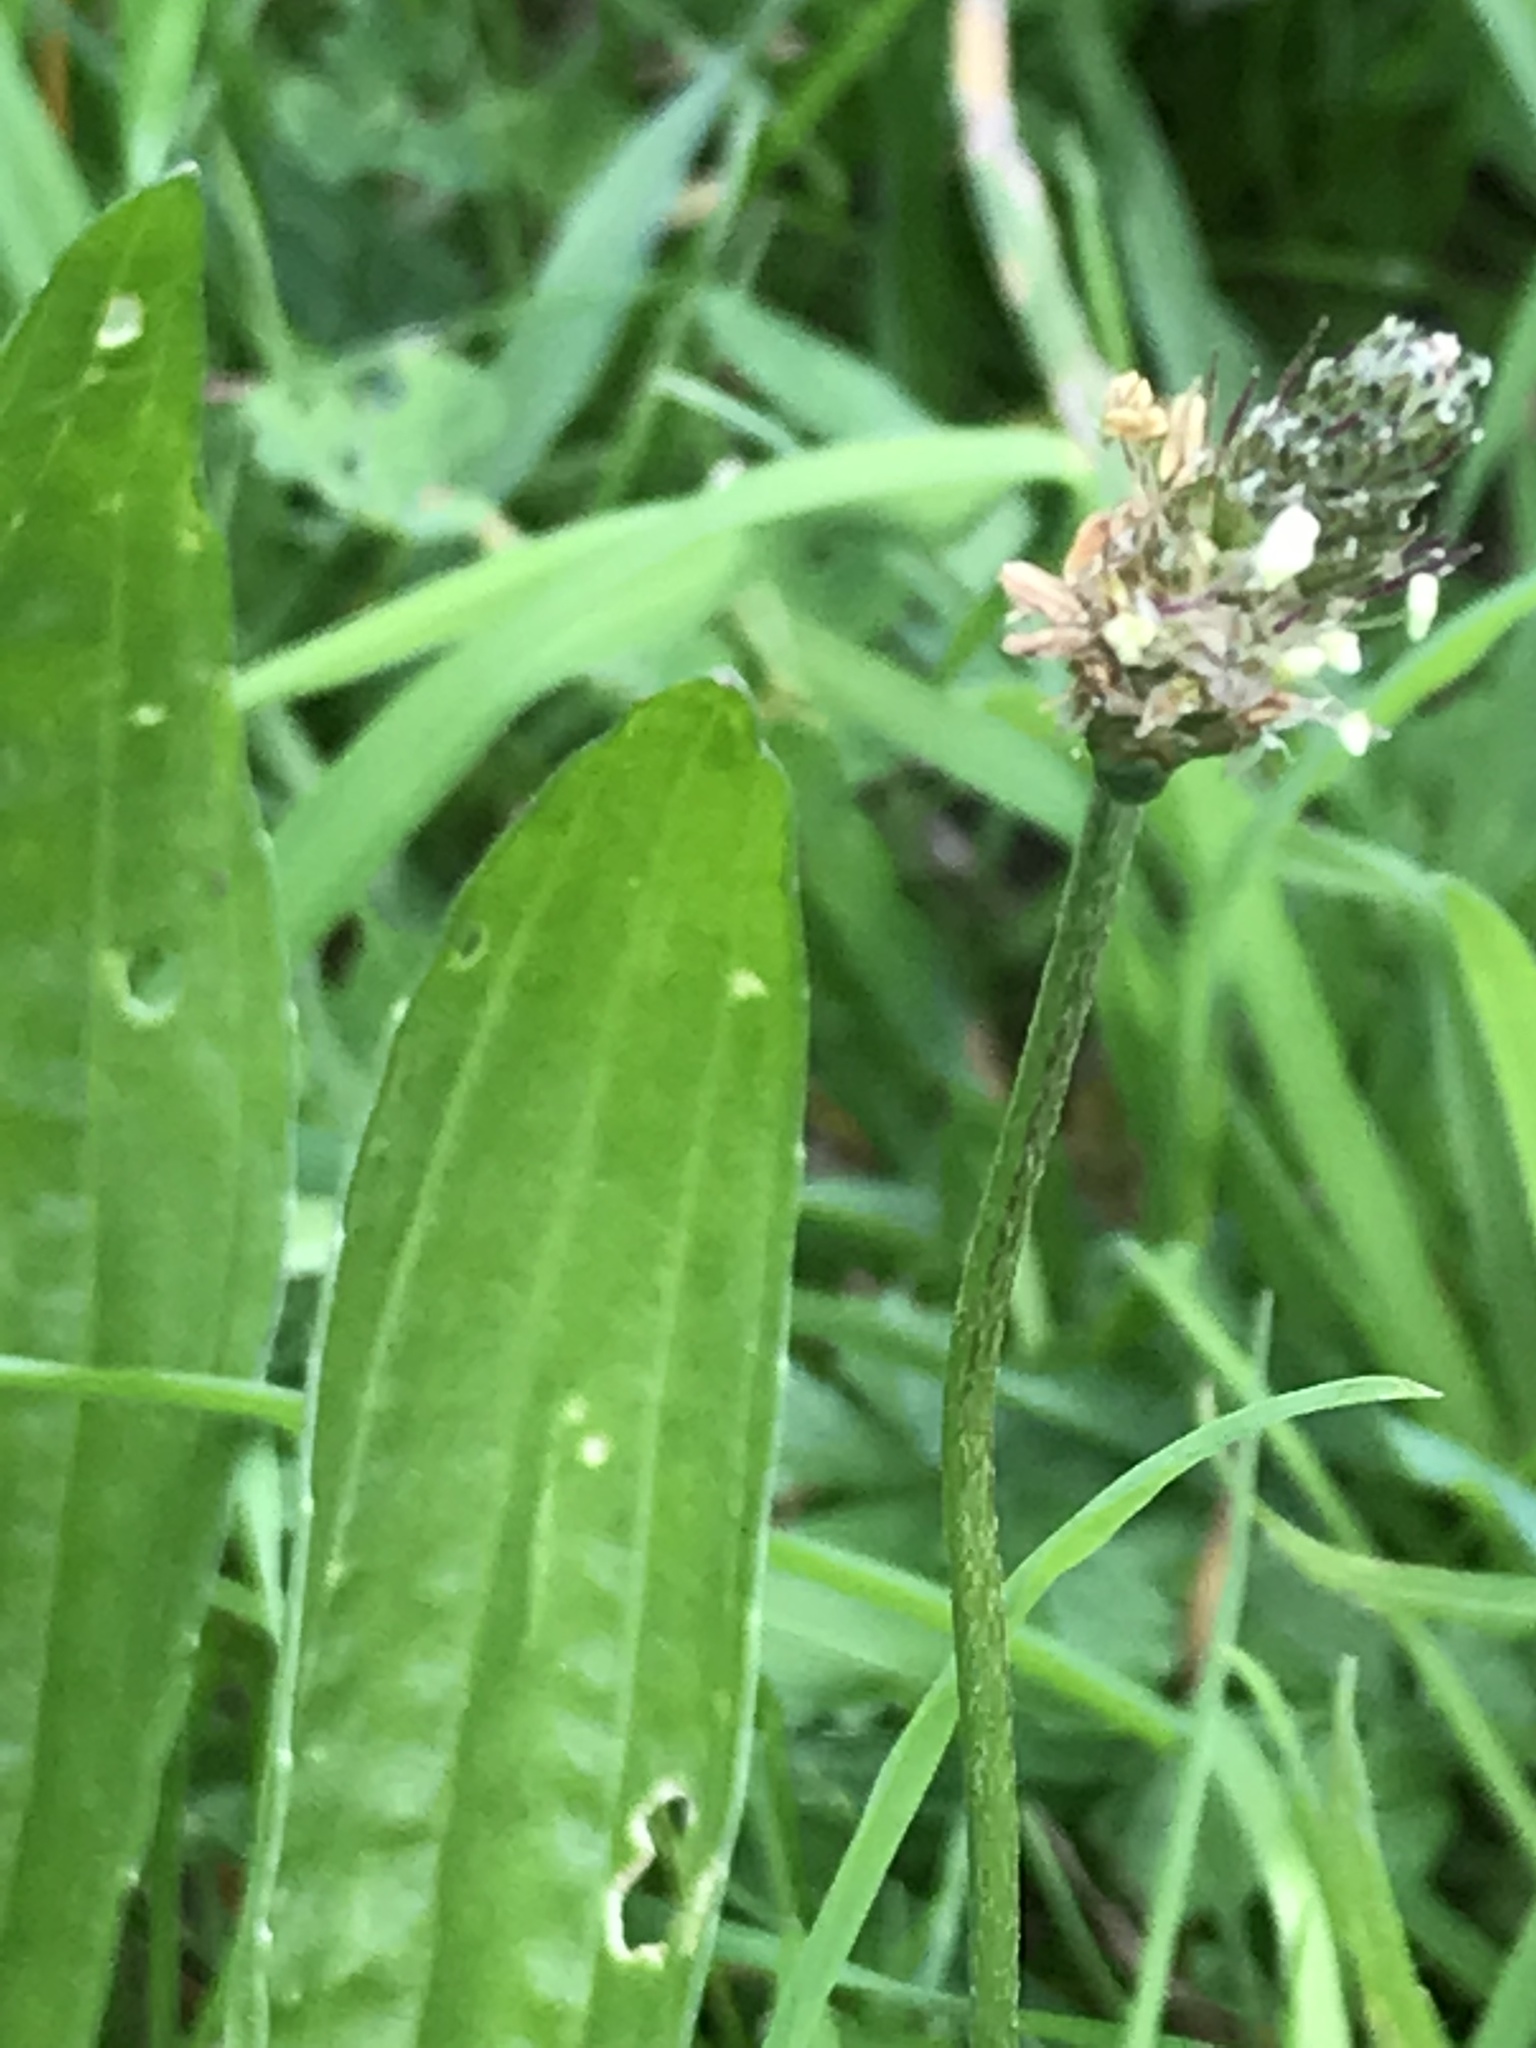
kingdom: Plantae
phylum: Tracheophyta
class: Magnoliopsida
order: Lamiales
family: Plantaginaceae
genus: Plantago
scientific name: Plantago lanceolata
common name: Ribwort plantain
